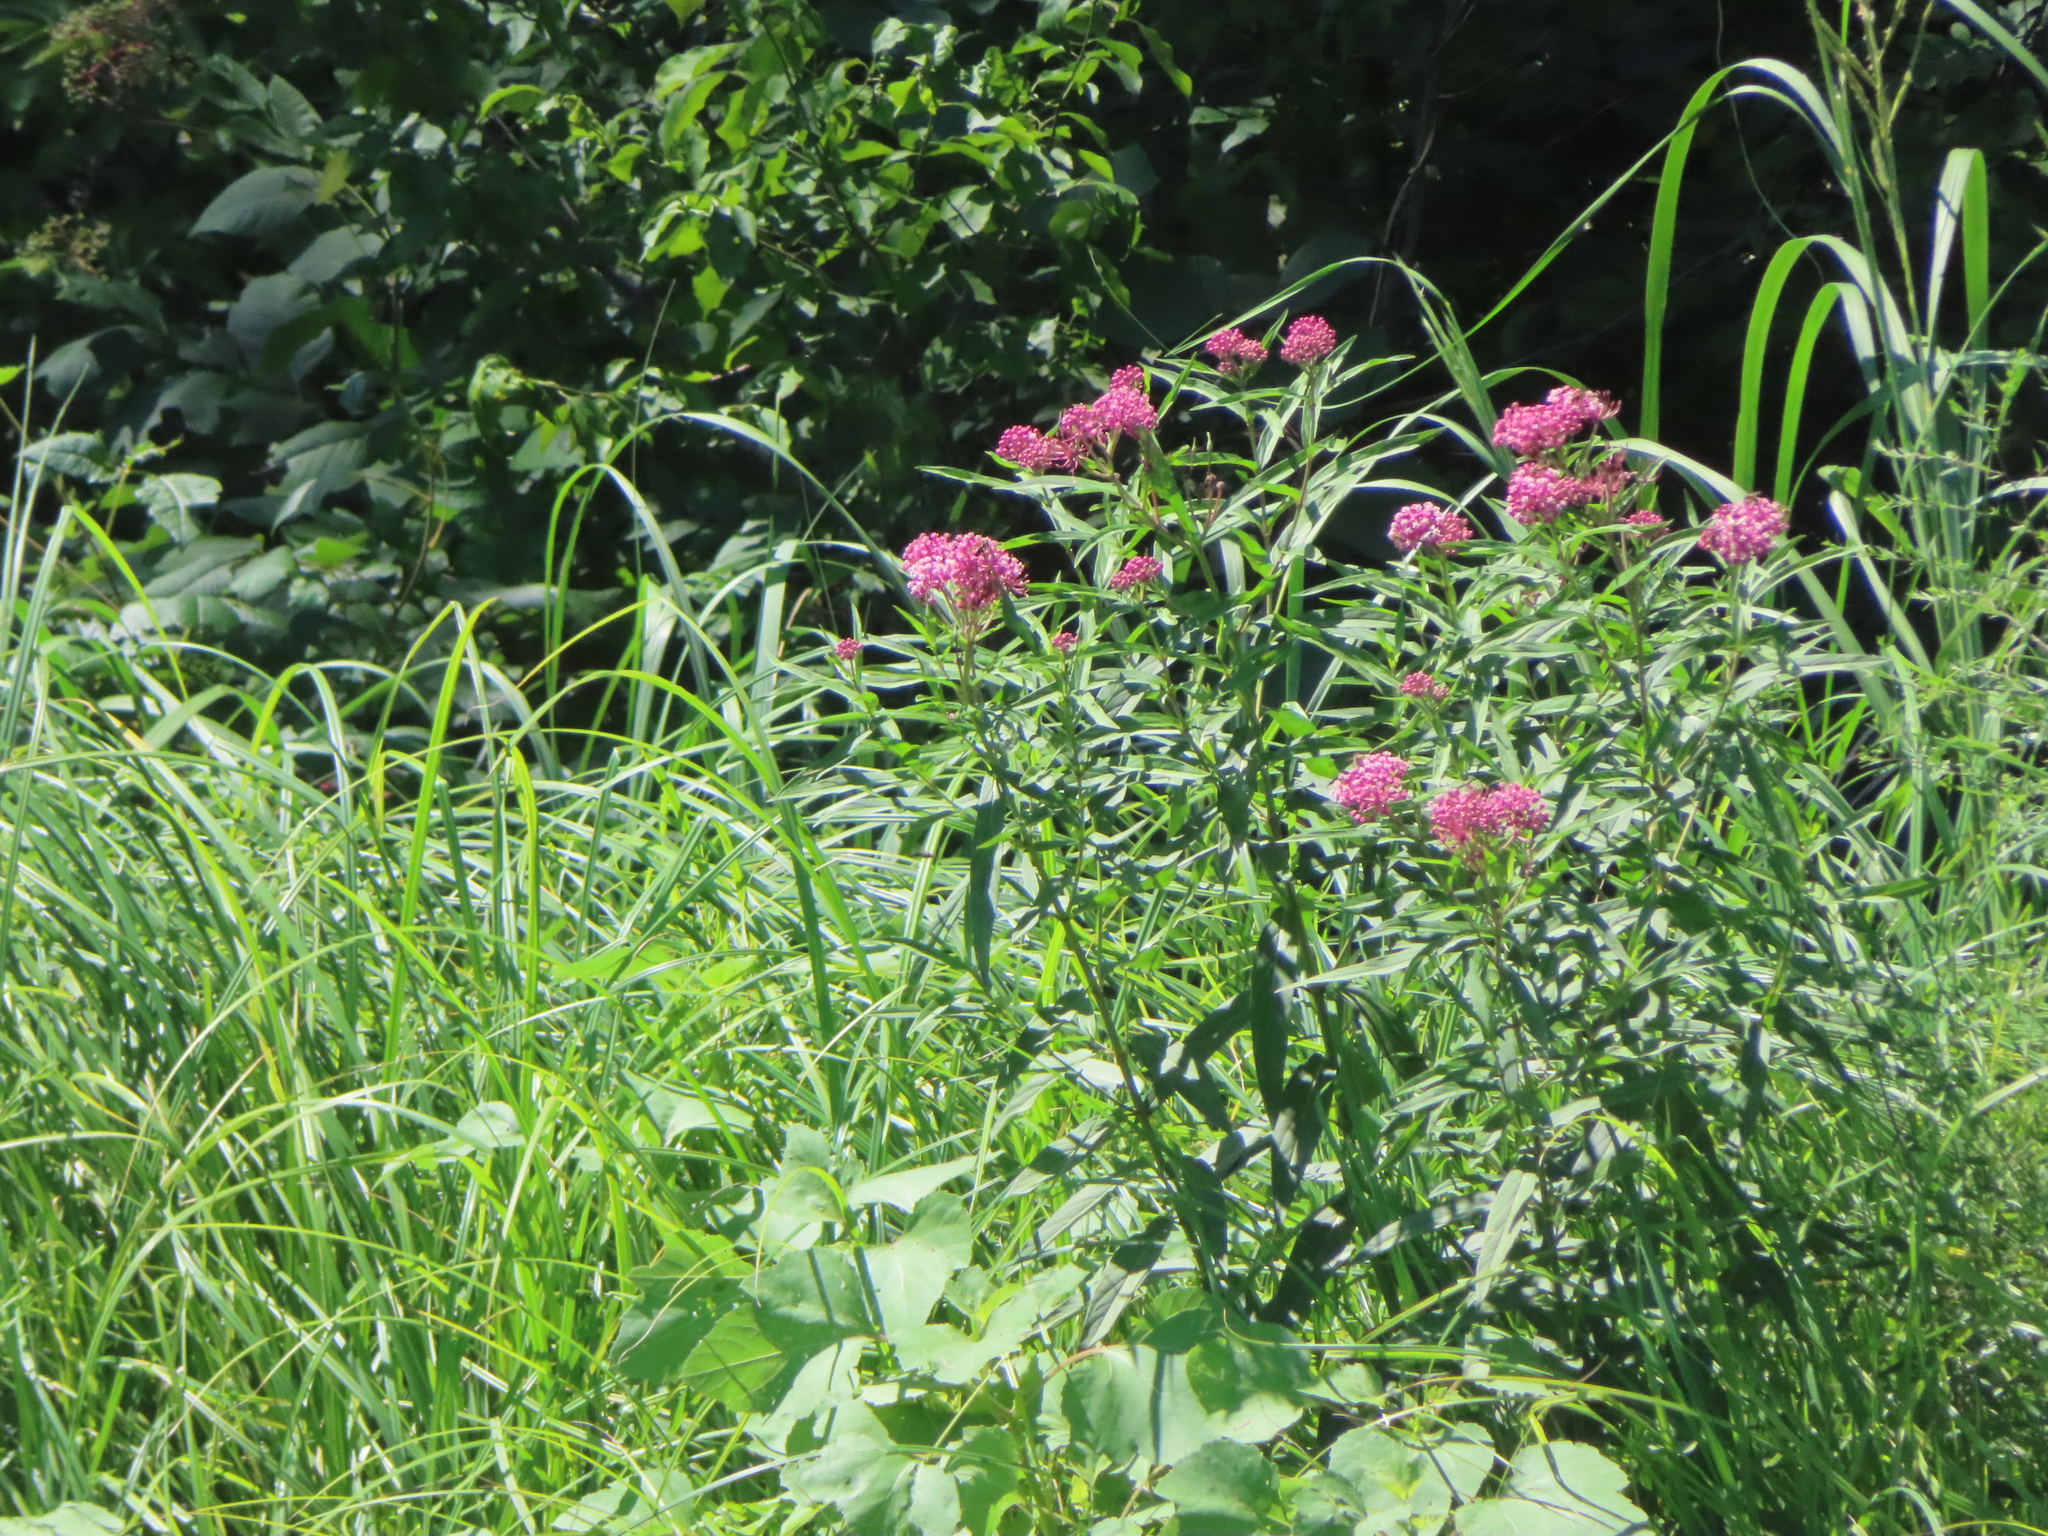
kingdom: Plantae
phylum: Tracheophyta
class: Magnoliopsida
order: Gentianales
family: Apocynaceae
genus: Asclepias
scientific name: Asclepias incarnata
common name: Swamp milkweed
